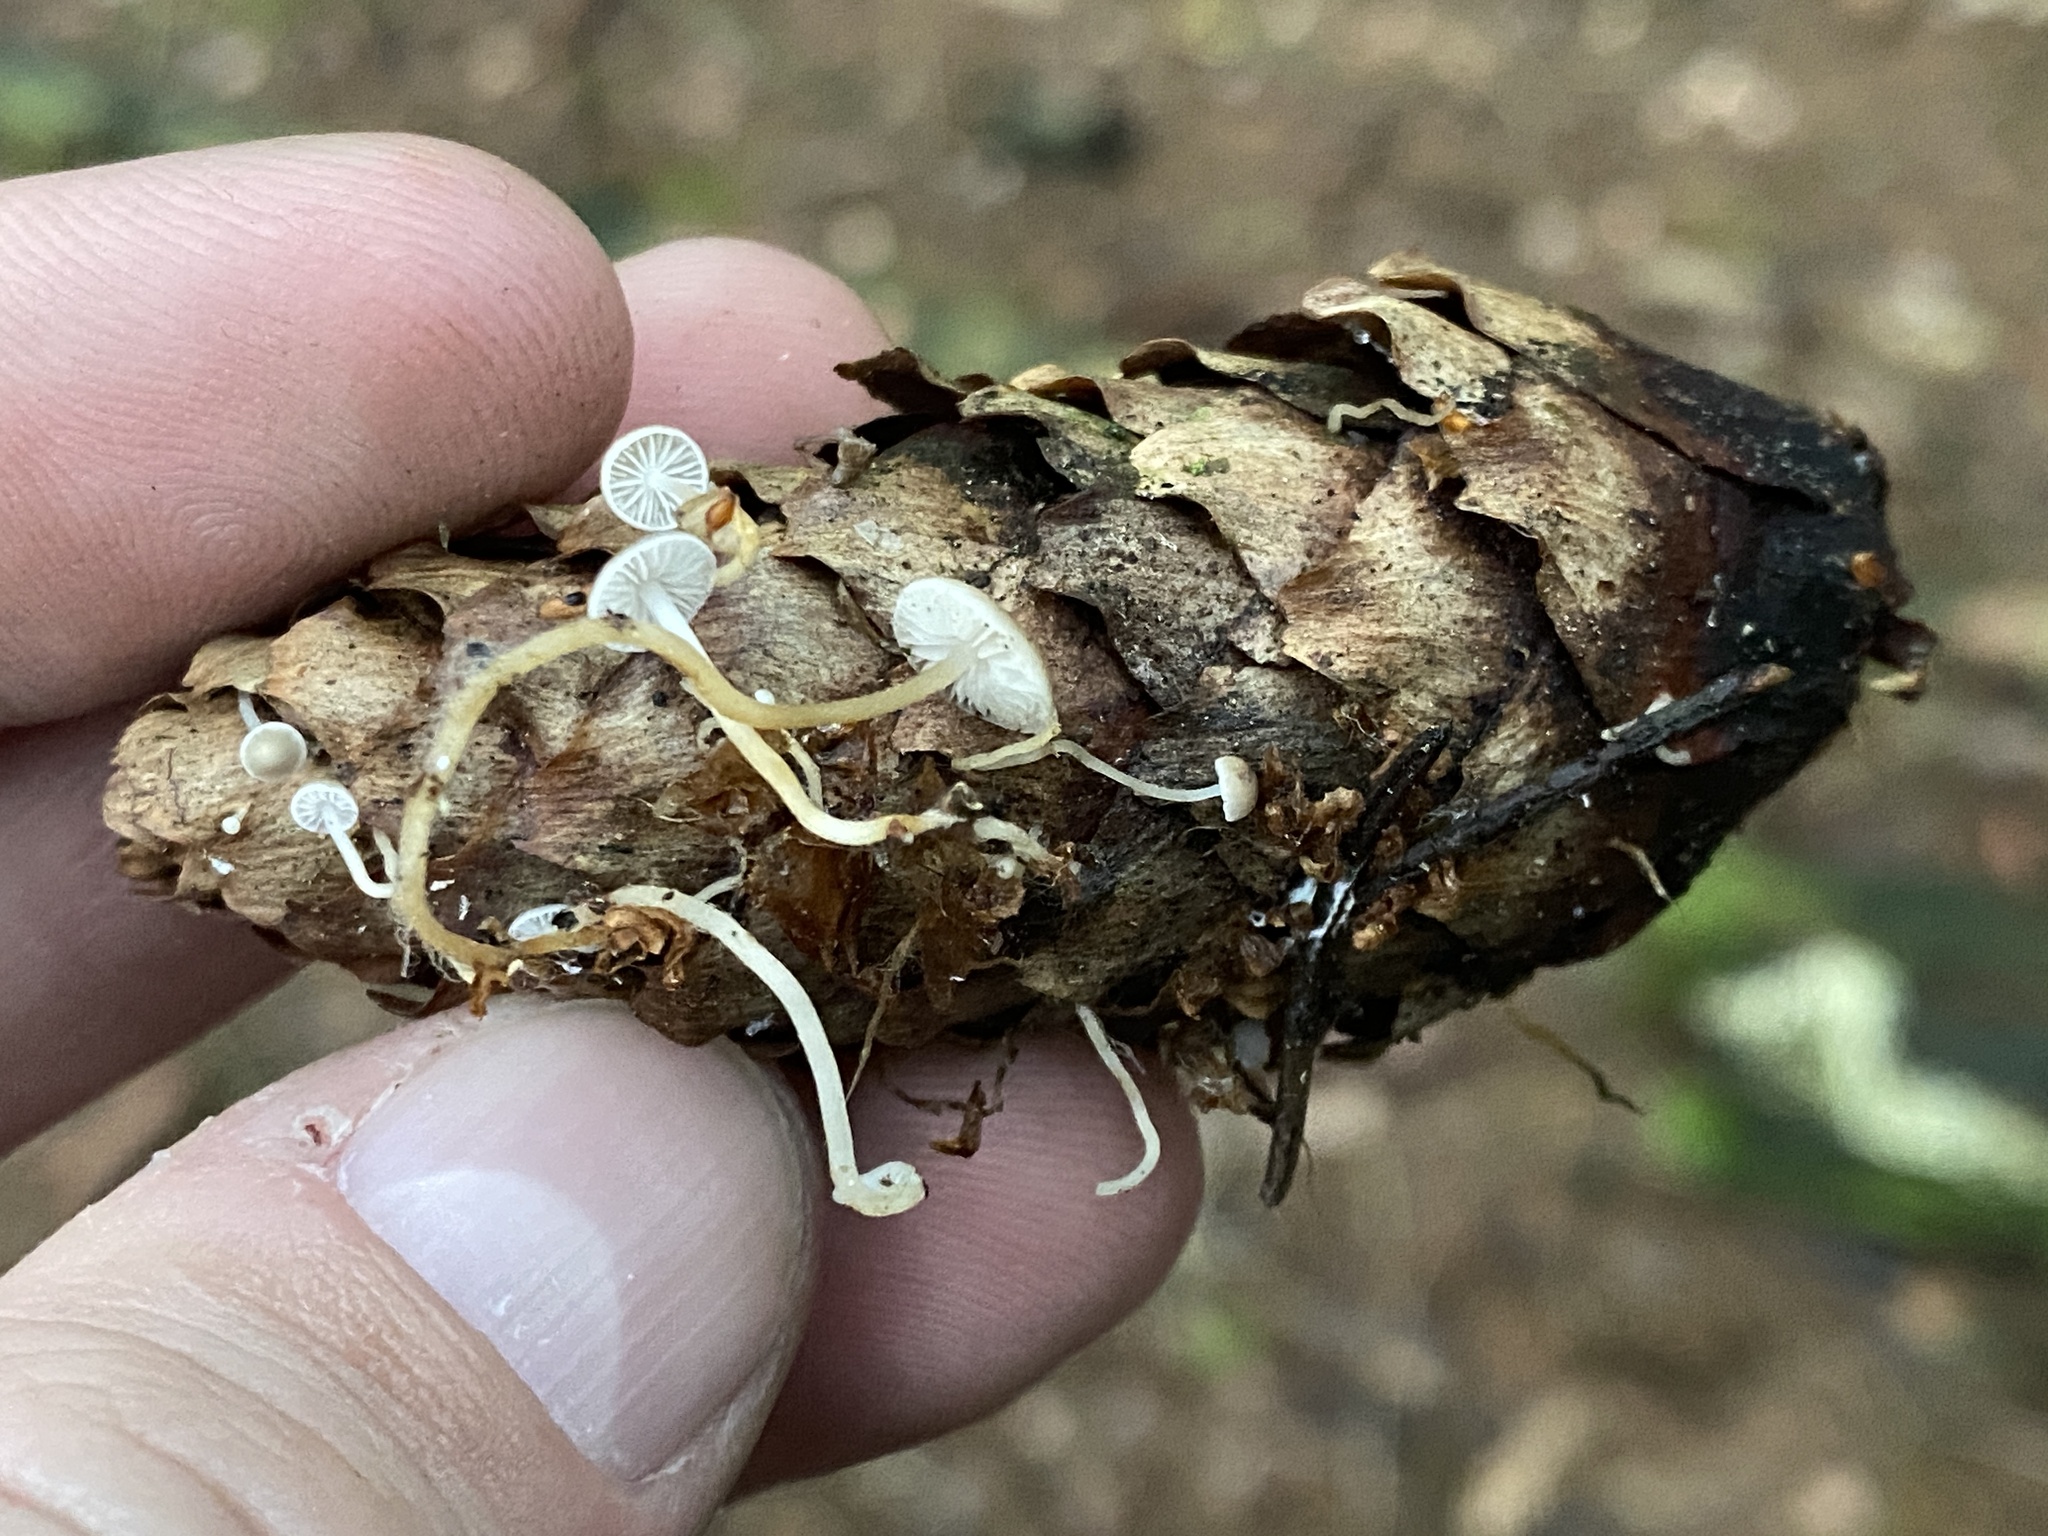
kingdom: Fungi
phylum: Basidiomycota
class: Agaricomycetes
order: Agaricales
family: Physalacriaceae
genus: Strobilurus
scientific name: Strobilurus esculentus
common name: Sprucecone cap
